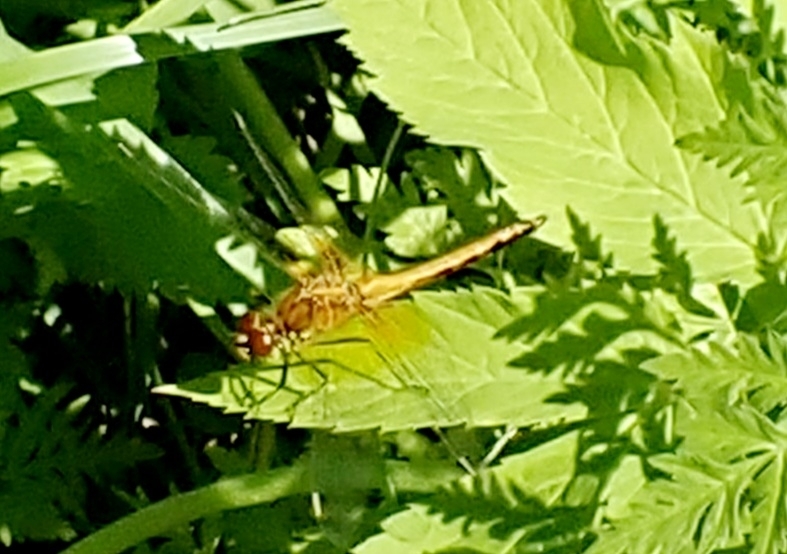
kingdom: Animalia
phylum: Arthropoda
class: Insecta
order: Odonata
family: Libellulidae
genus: Sympetrum
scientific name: Sympetrum flaveolum
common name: Yellow-winged darter
